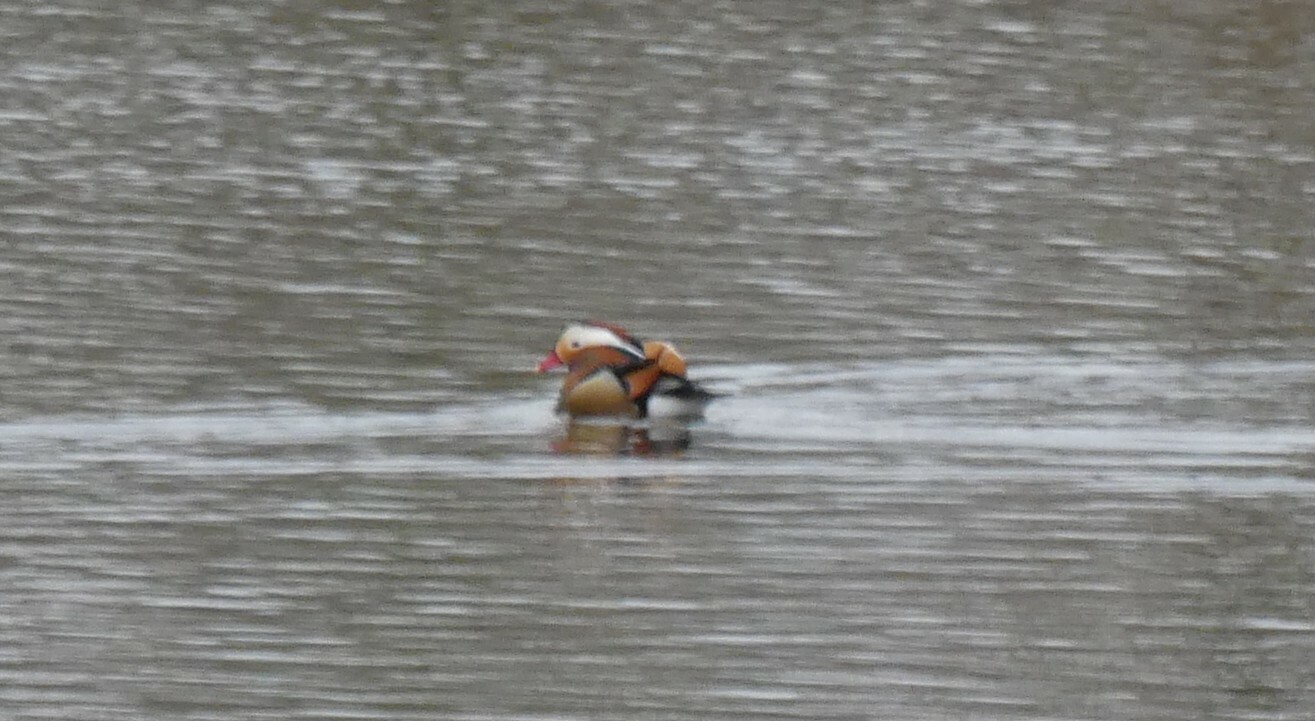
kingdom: Animalia
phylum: Chordata
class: Aves
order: Anseriformes
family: Anatidae
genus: Aix
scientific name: Aix galericulata
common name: Mandarin duck
